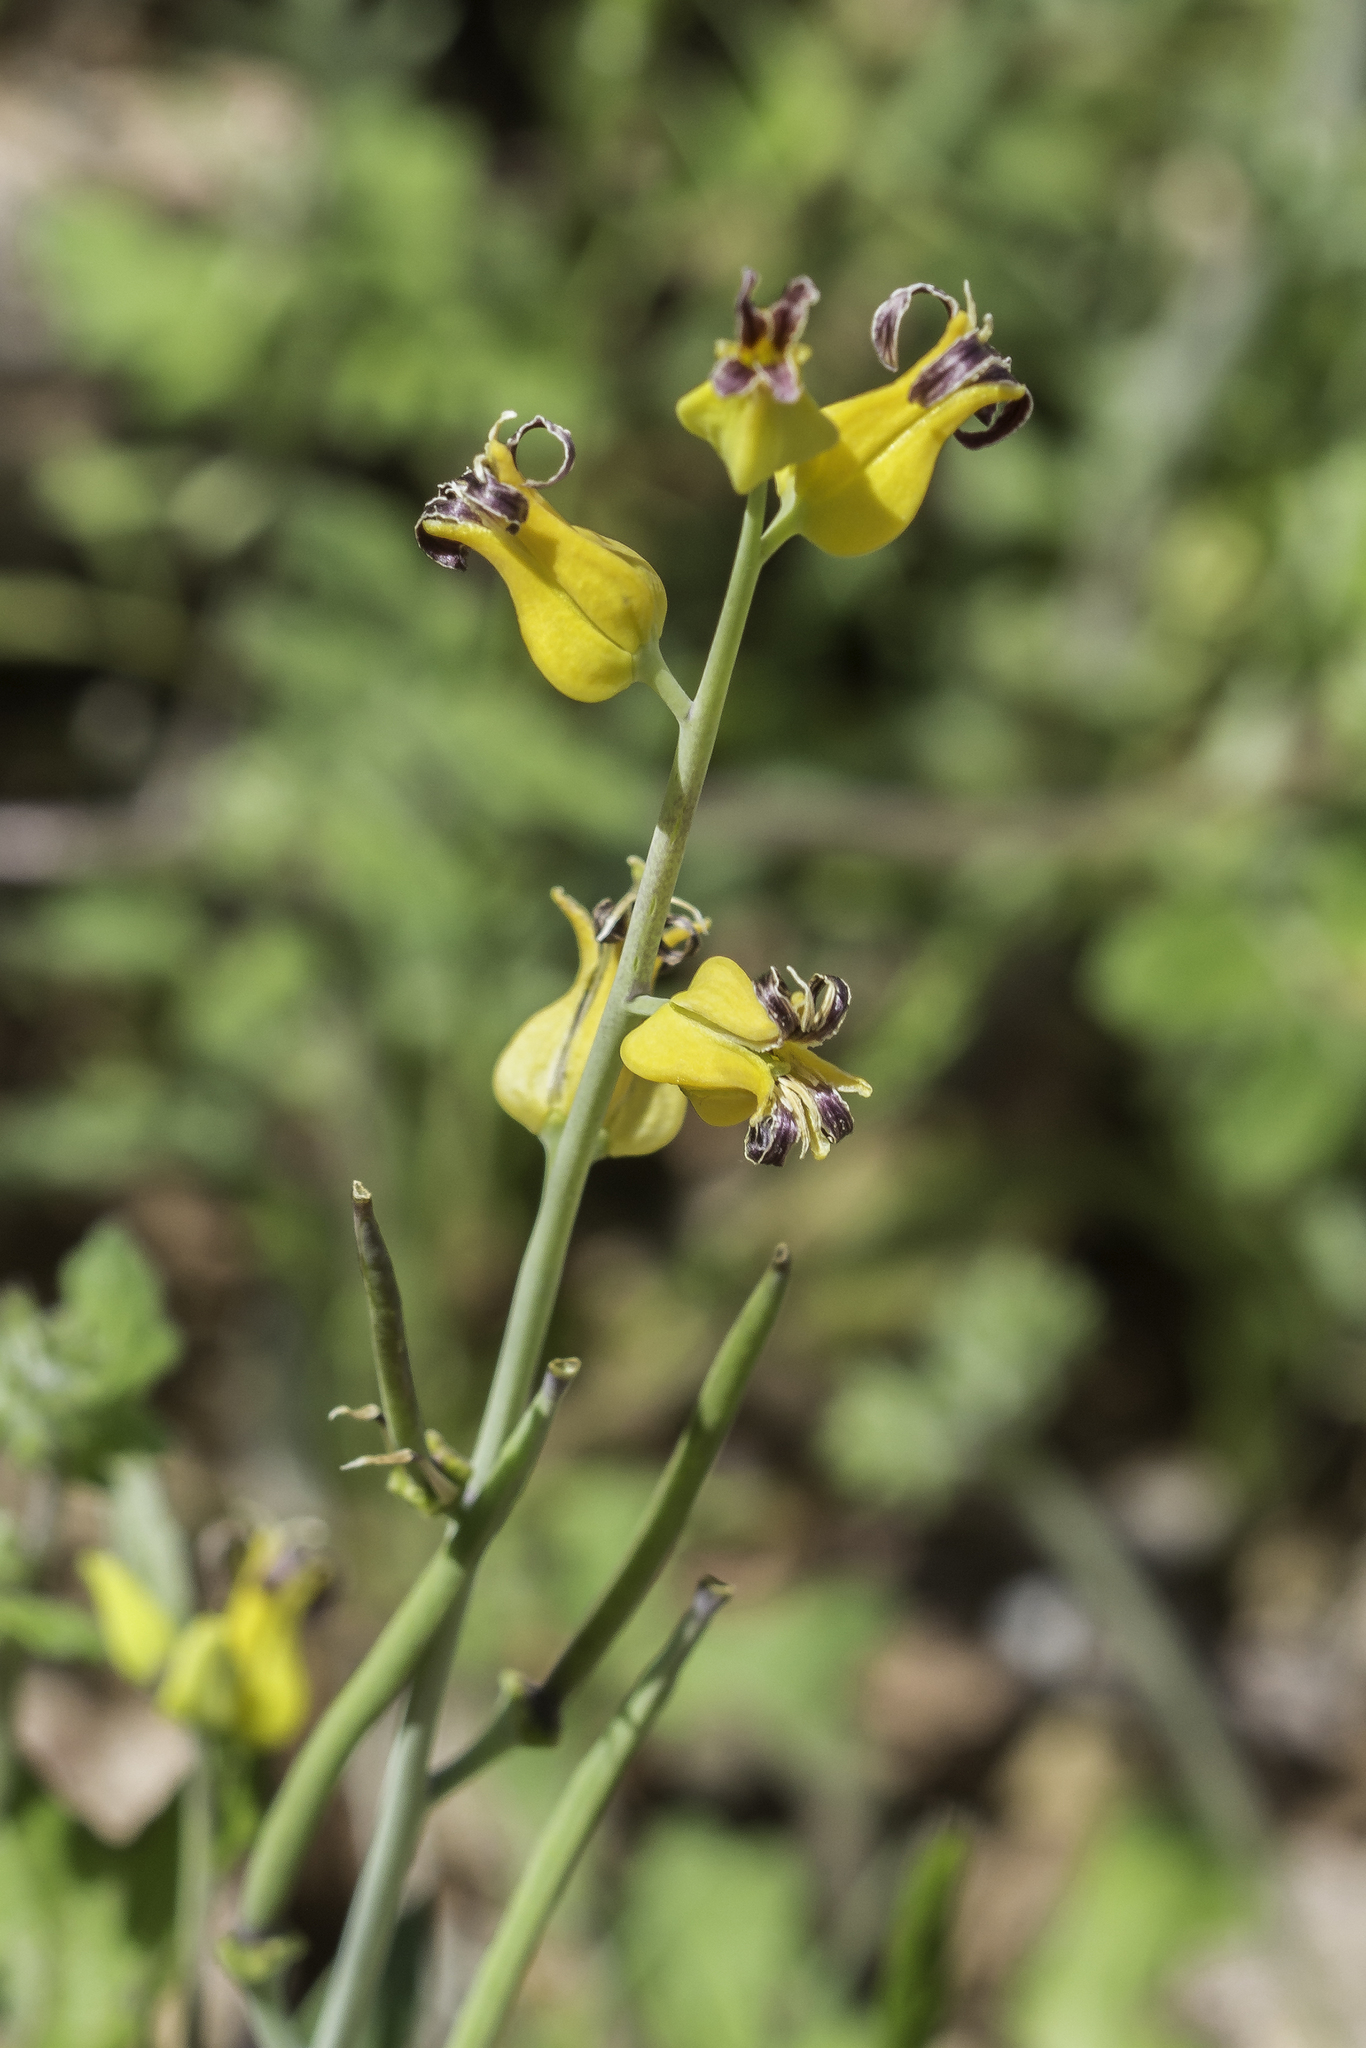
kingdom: Plantae
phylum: Tracheophyta
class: Magnoliopsida
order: Brassicales
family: Brassicaceae
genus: Streptanthus
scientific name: Streptanthus carinatus
